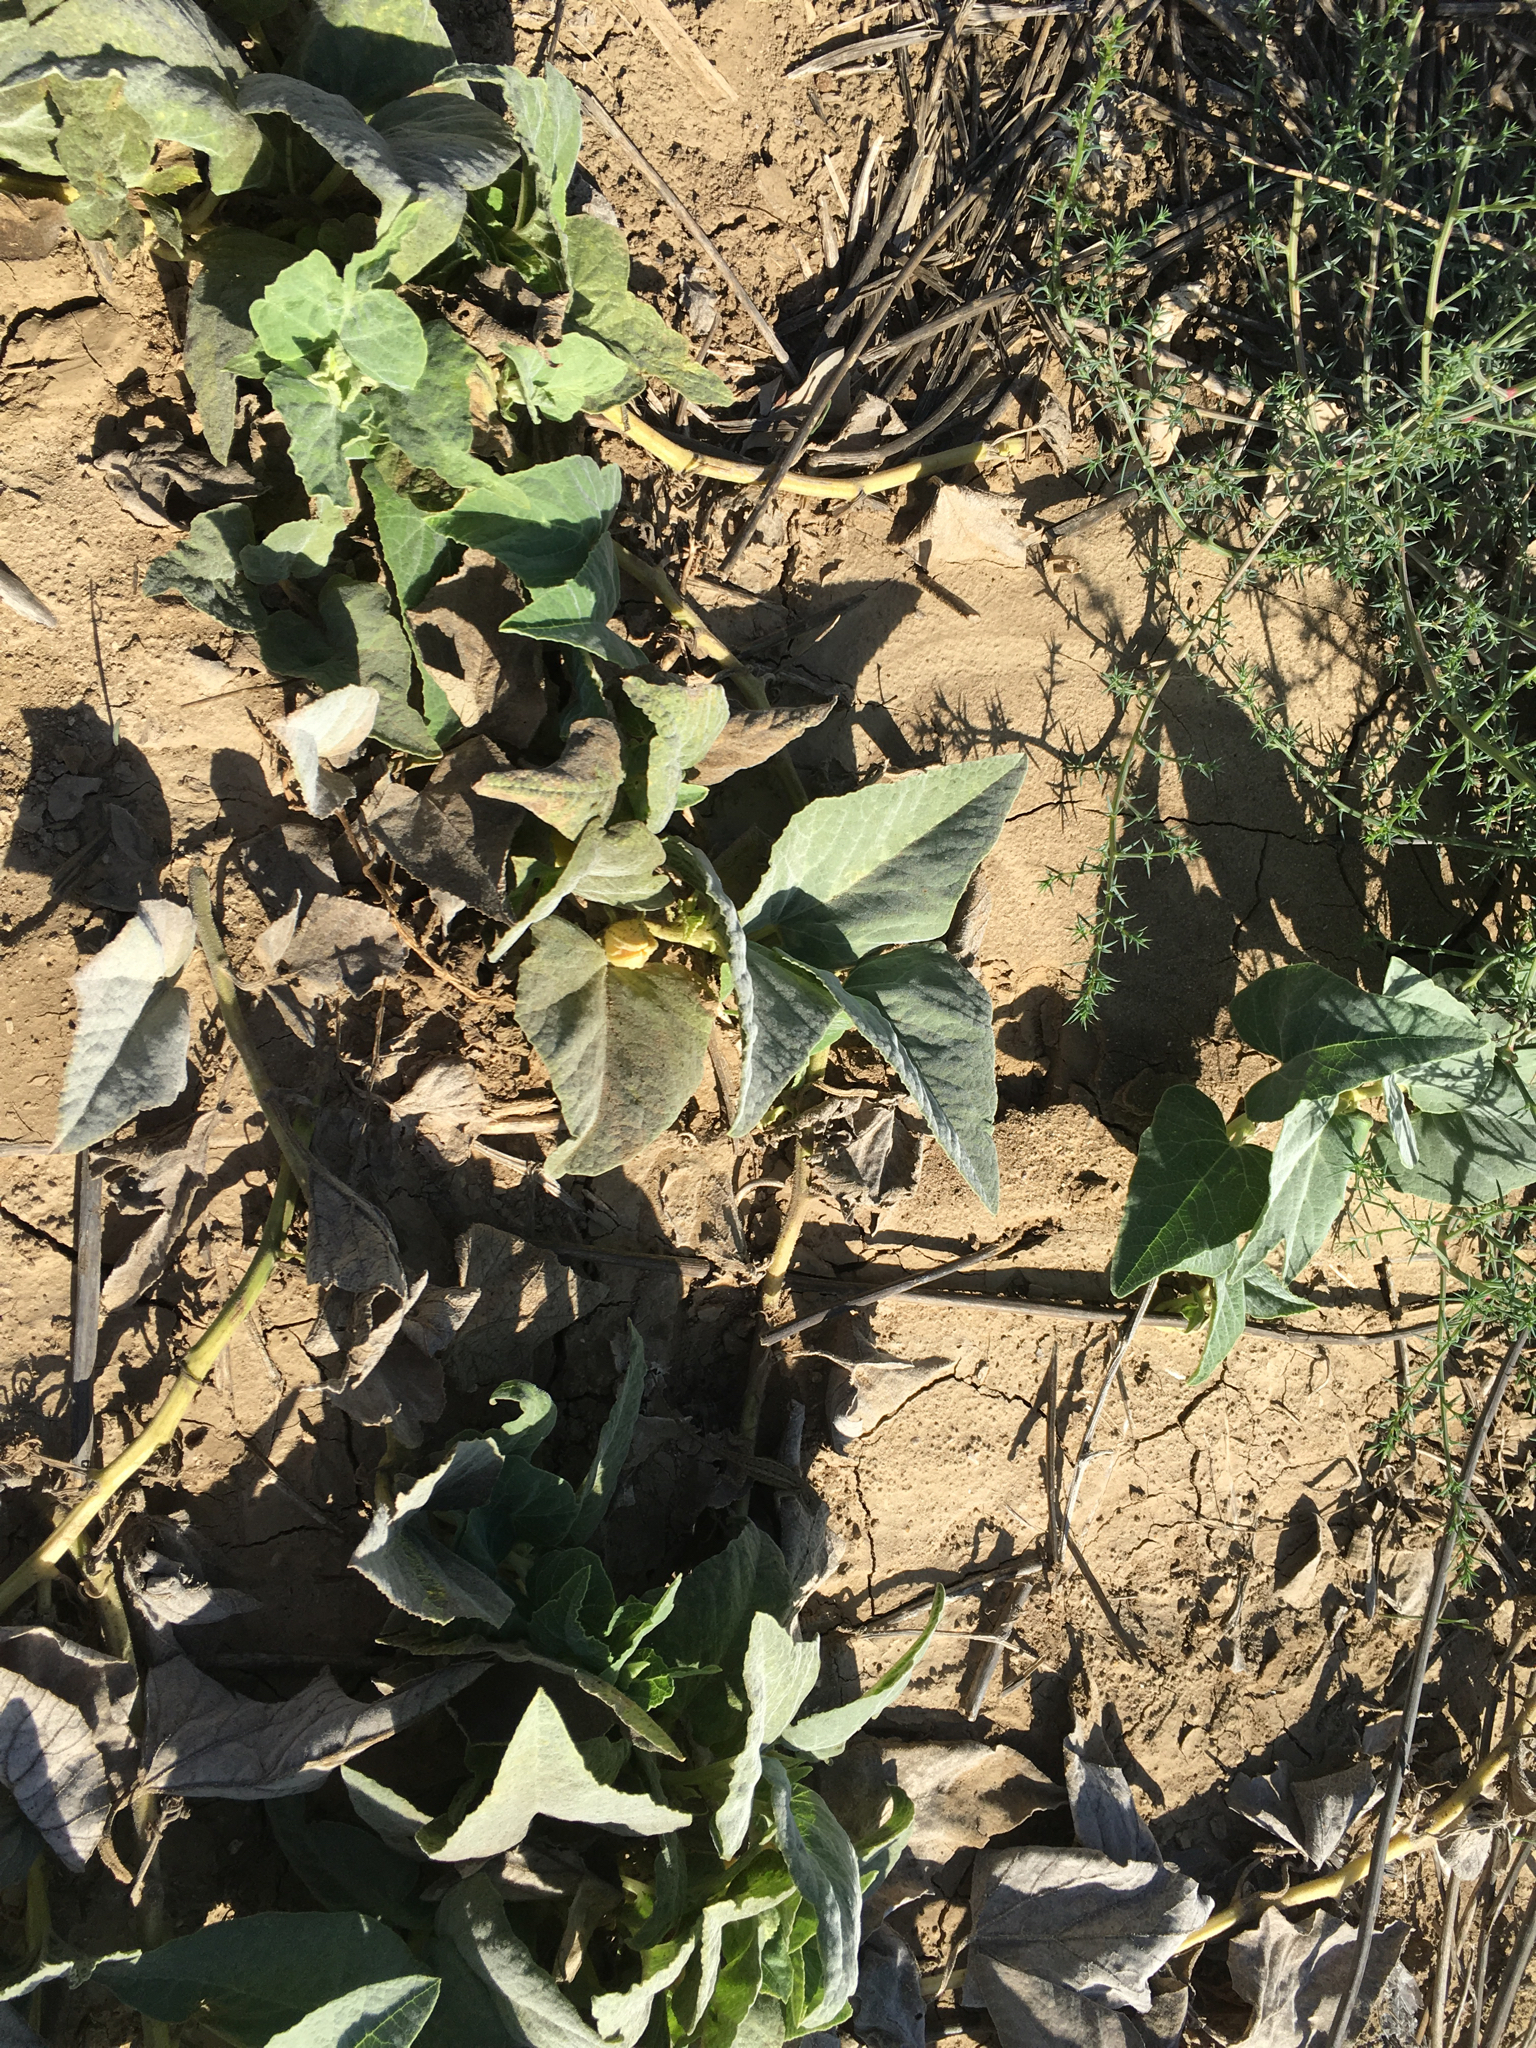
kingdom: Plantae
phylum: Tracheophyta
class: Magnoliopsida
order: Cucurbitales
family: Cucurbitaceae
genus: Cucurbita
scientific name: Cucurbita foetidissima
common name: Buffalo gourd
